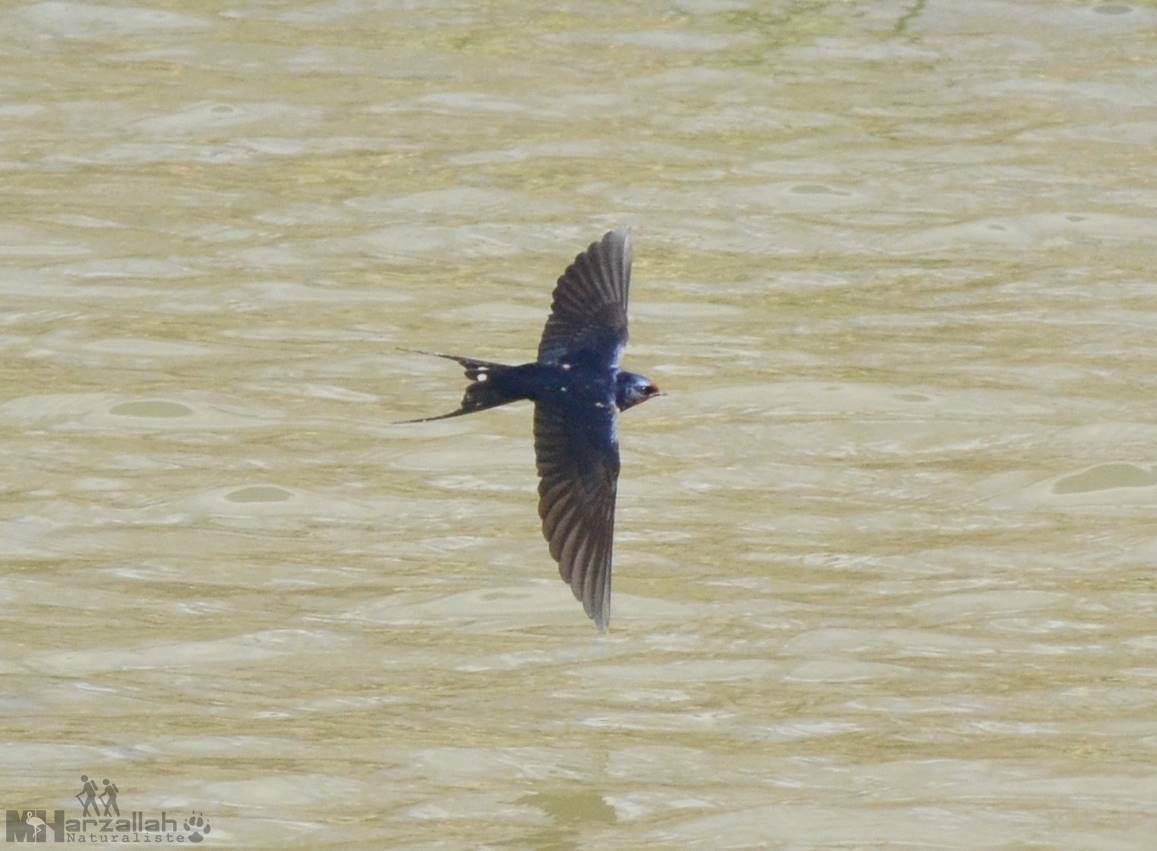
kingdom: Animalia
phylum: Chordata
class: Aves
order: Passeriformes
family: Hirundinidae
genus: Hirundo
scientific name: Hirundo rustica
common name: Barn swallow
